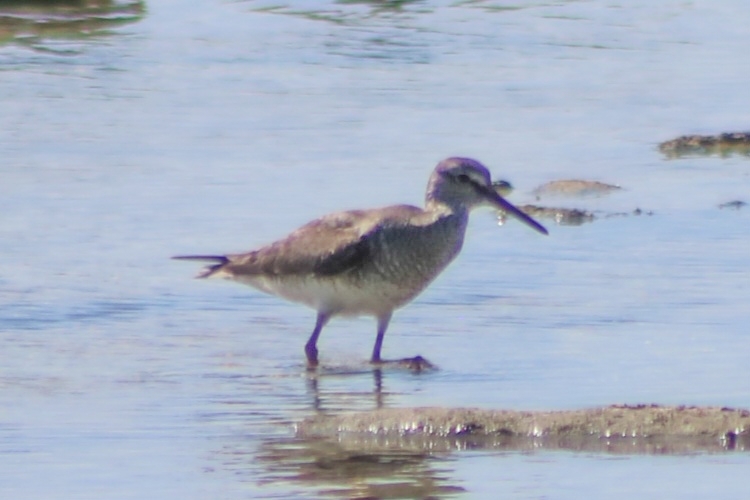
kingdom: Animalia
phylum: Chordata
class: Aves
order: Charadriiformes
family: Scolopacidae
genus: Tringa
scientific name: Tringa brevipes
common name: Grey-tailed tattler
